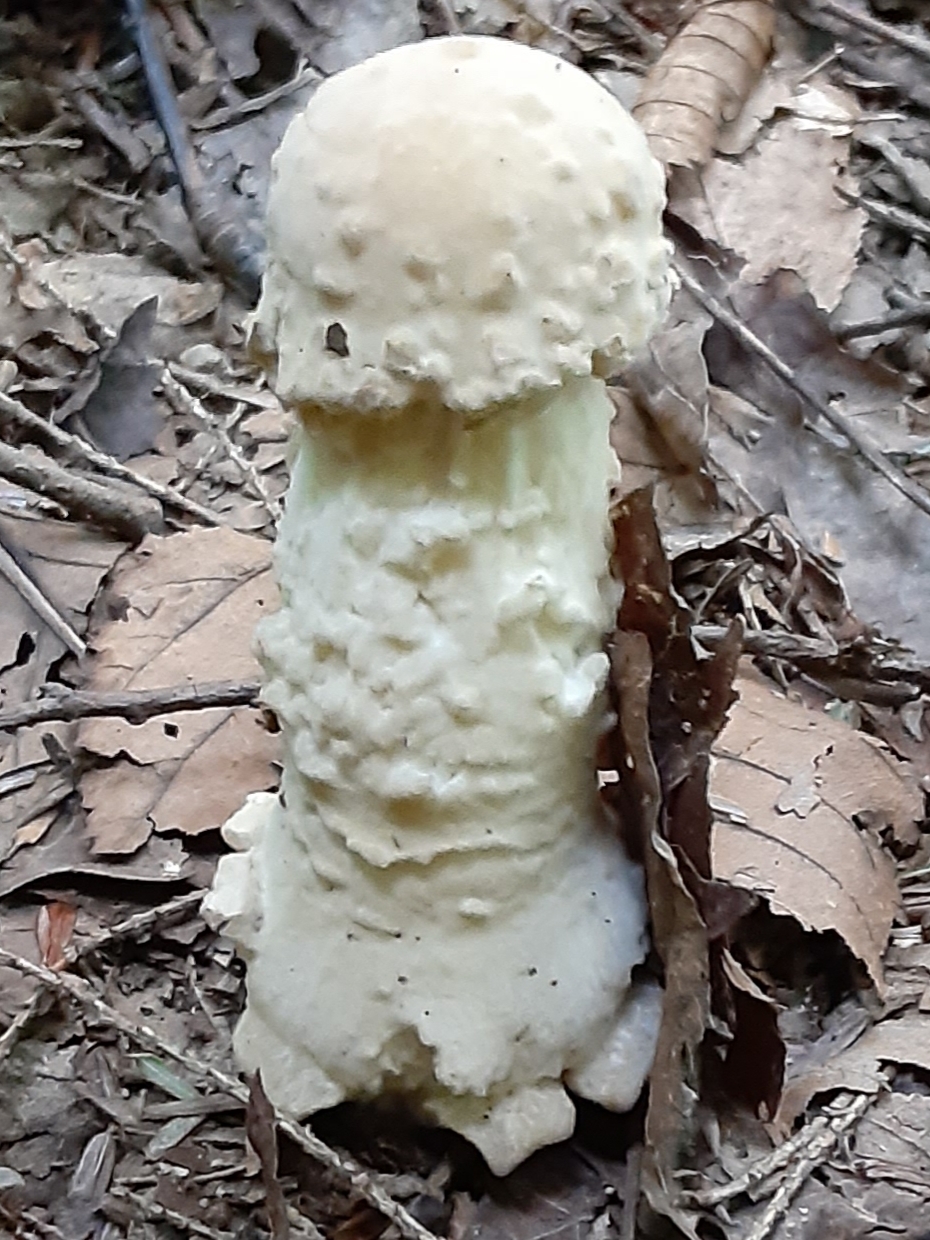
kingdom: Fungi
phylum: Ascomycota
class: Sordariomycetes
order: Hypocreales
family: Hypocreaceae
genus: Hypomyces
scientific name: Hypomyces hyalinus
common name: Amanita mold
